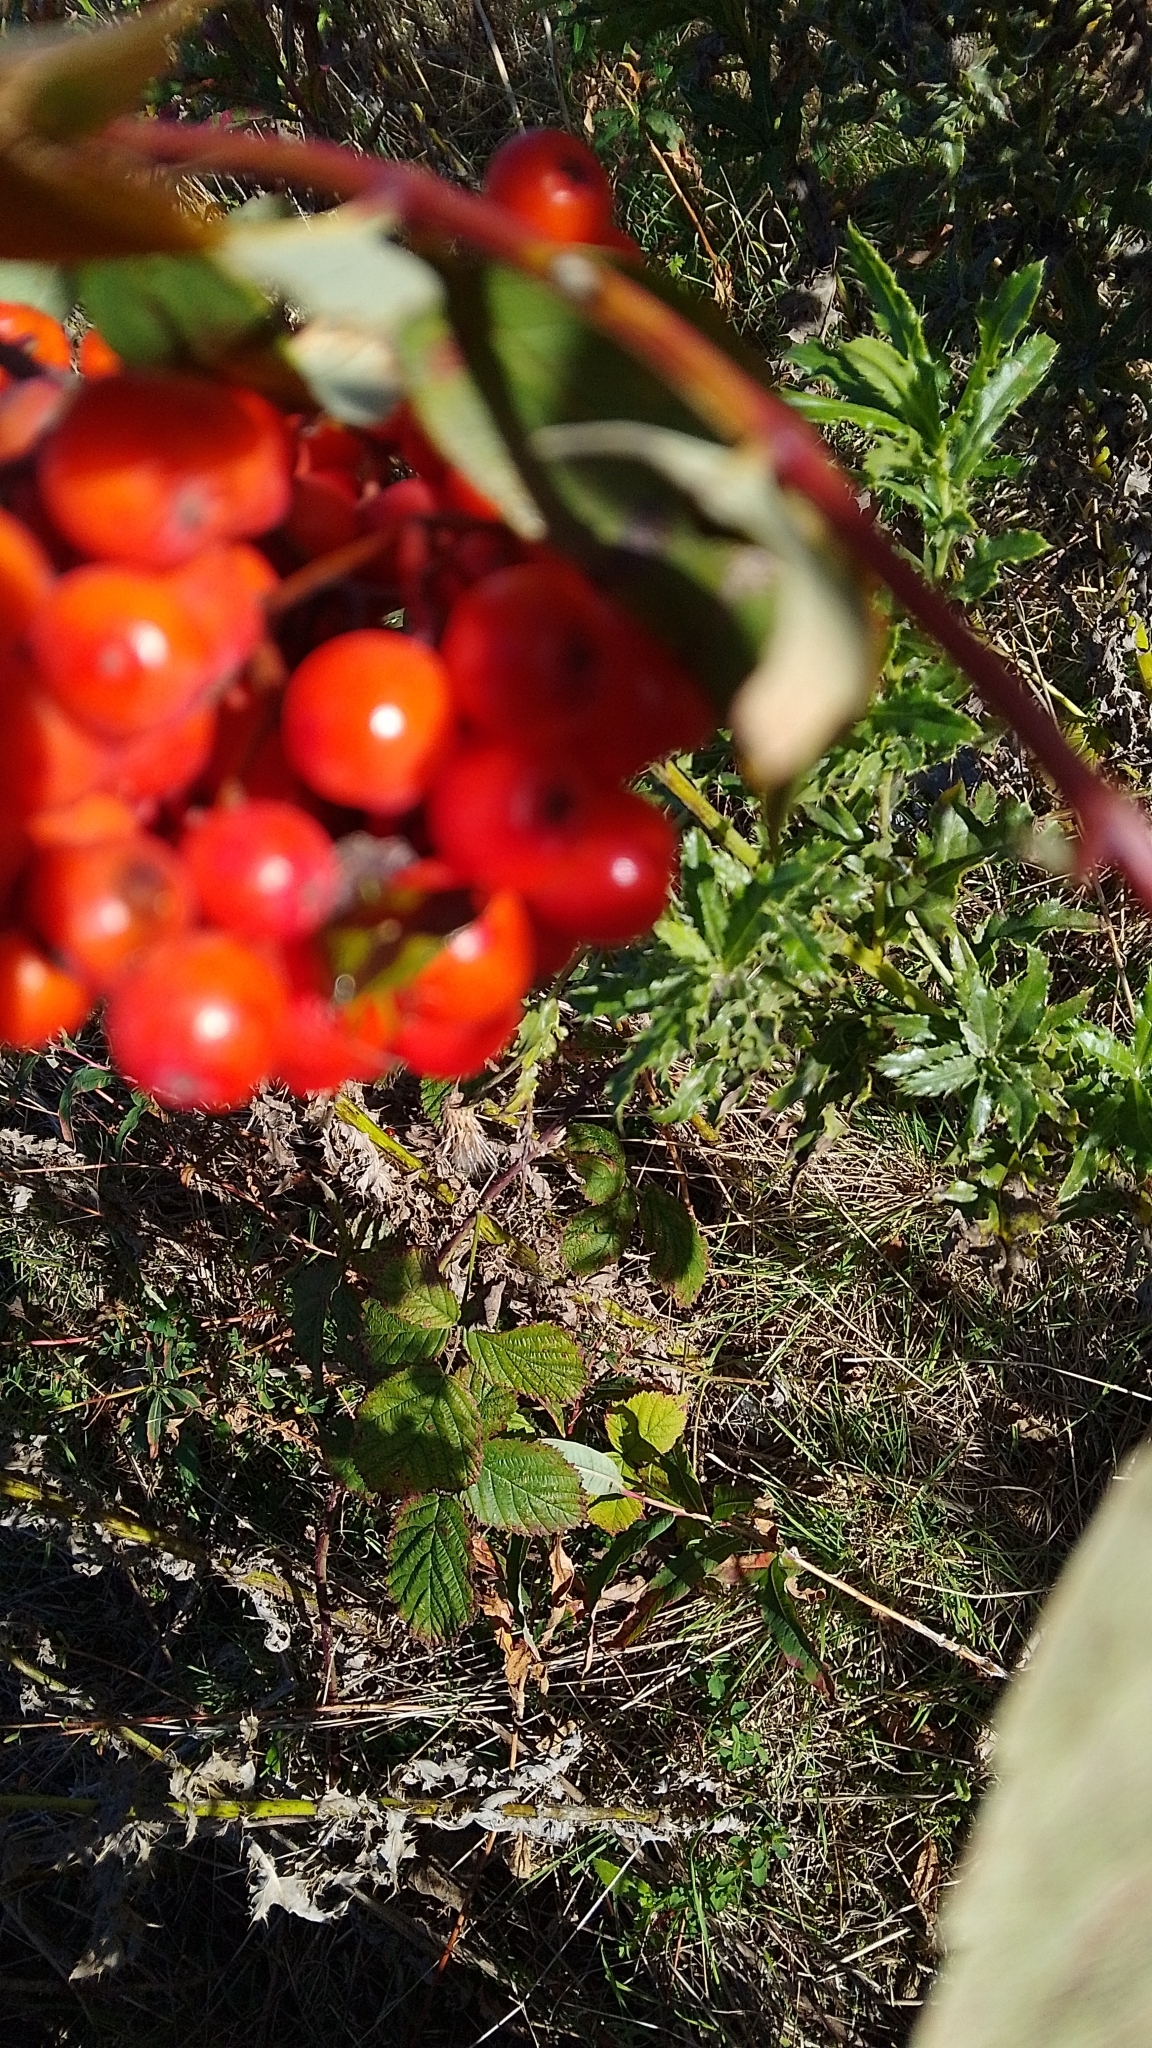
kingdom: Animalia
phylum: Arthropoda
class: Insecta
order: Hemiptera
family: Acanthosomatidae
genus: Acanthosoma
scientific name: Acanthosoma haemorrhoidale
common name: Hawthorn shieldbug
